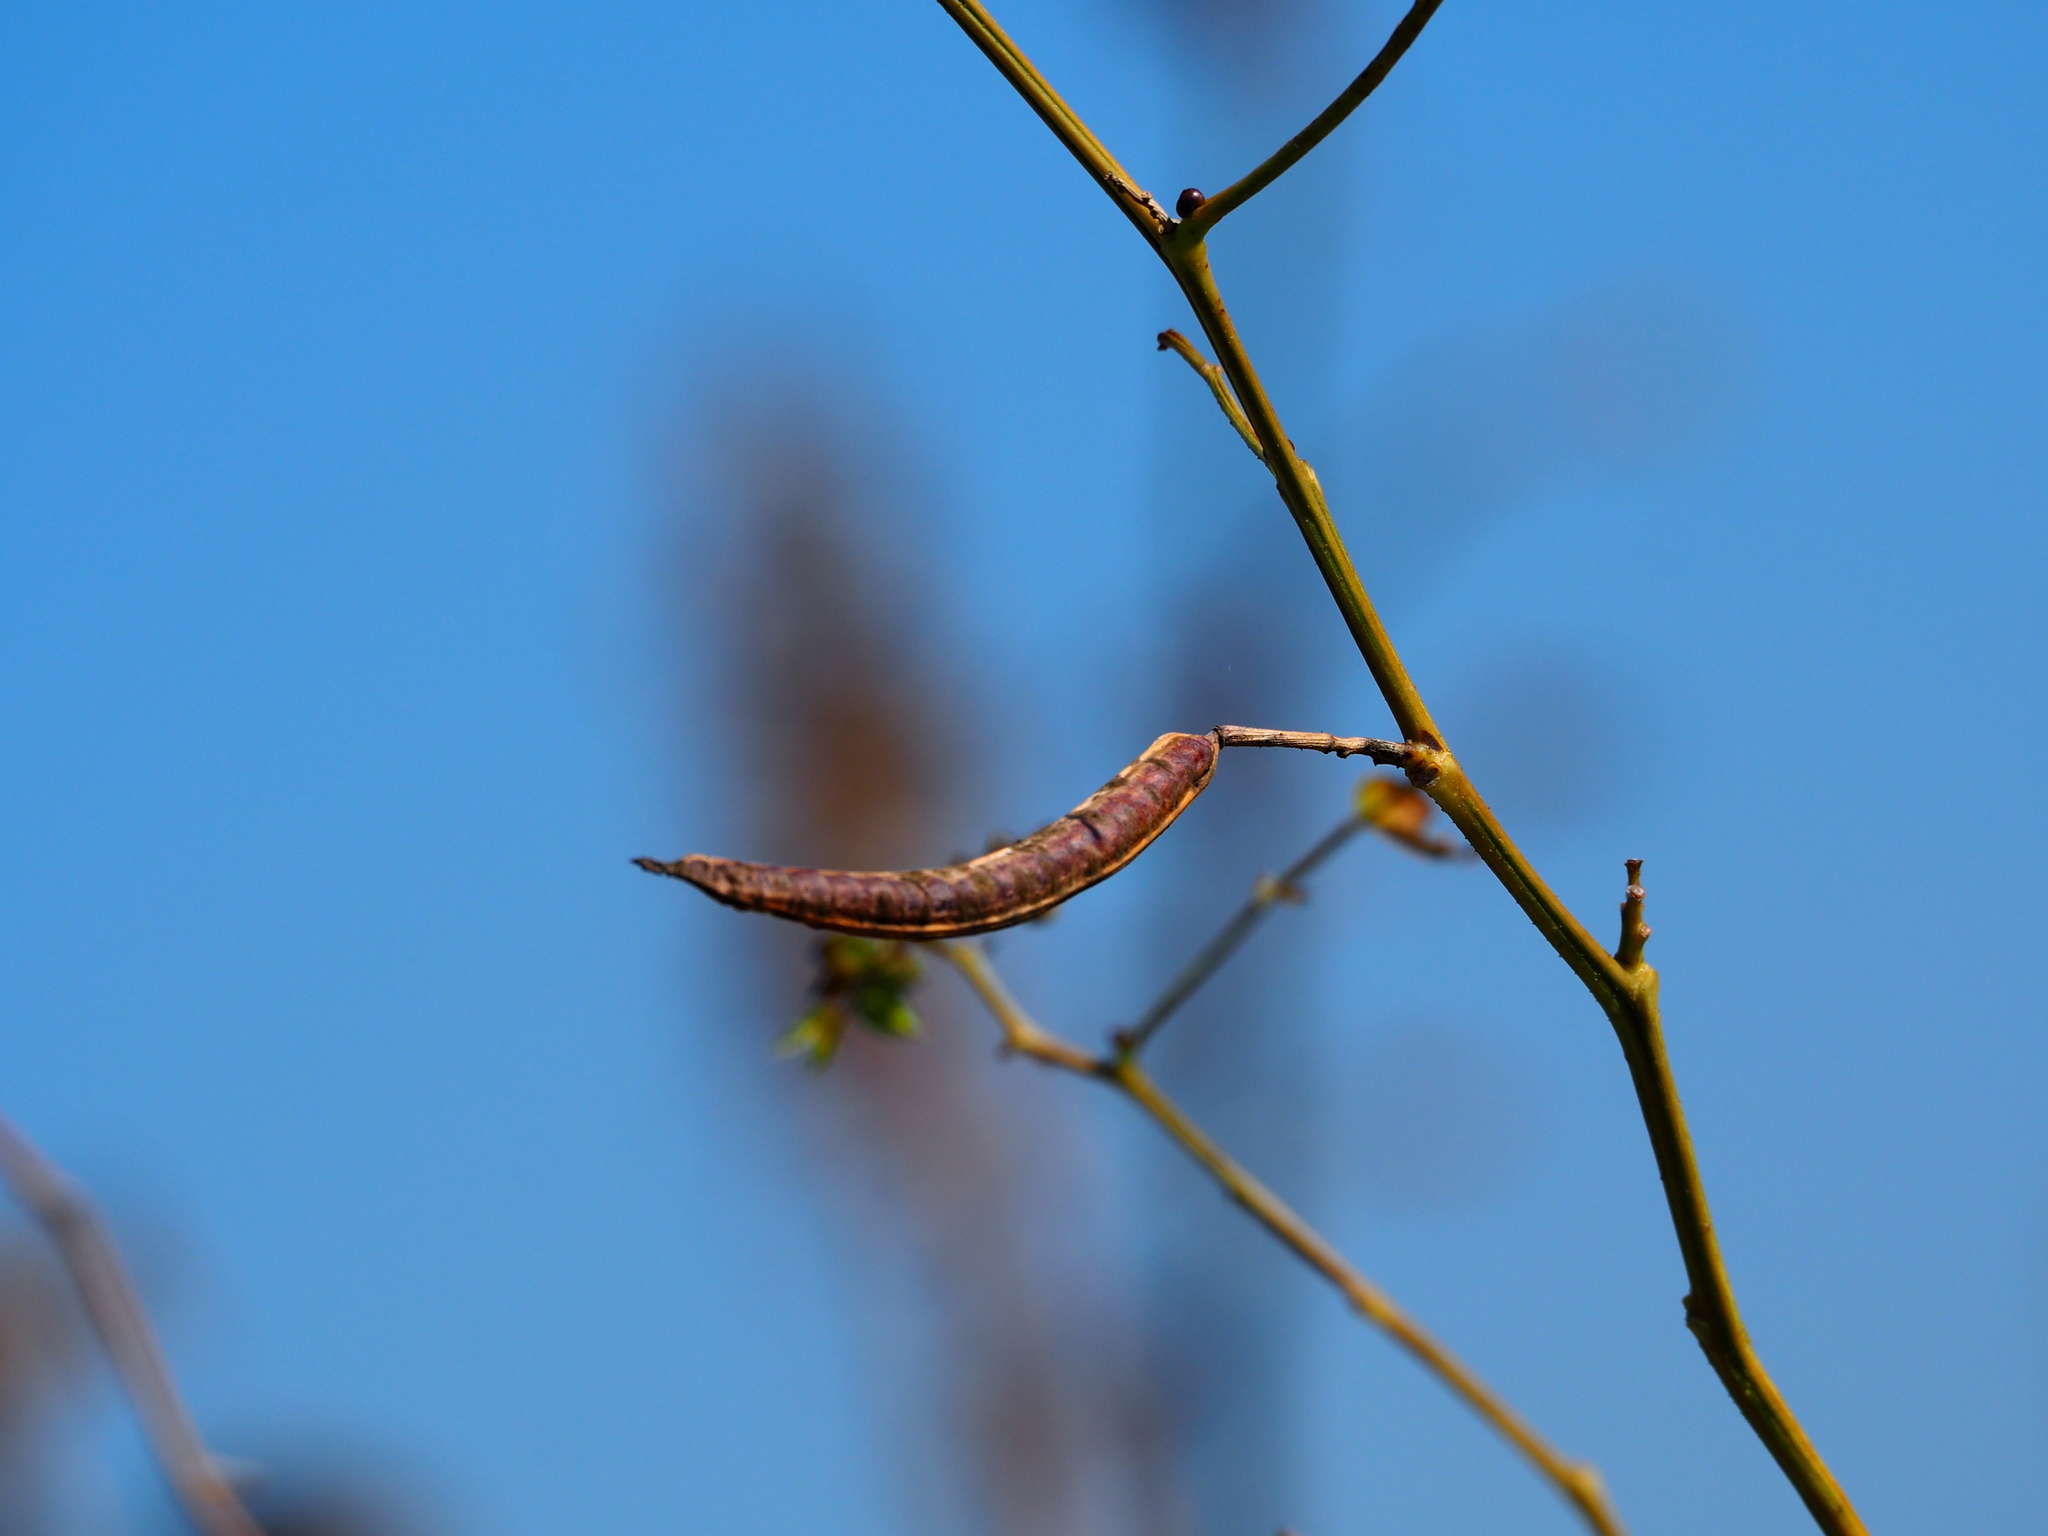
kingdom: Plantae
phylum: Tracheophyta
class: Magnoliopsida
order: Fabales
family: Fabaceae
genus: Senna
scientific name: Senna occidentalis
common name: Septicweed
